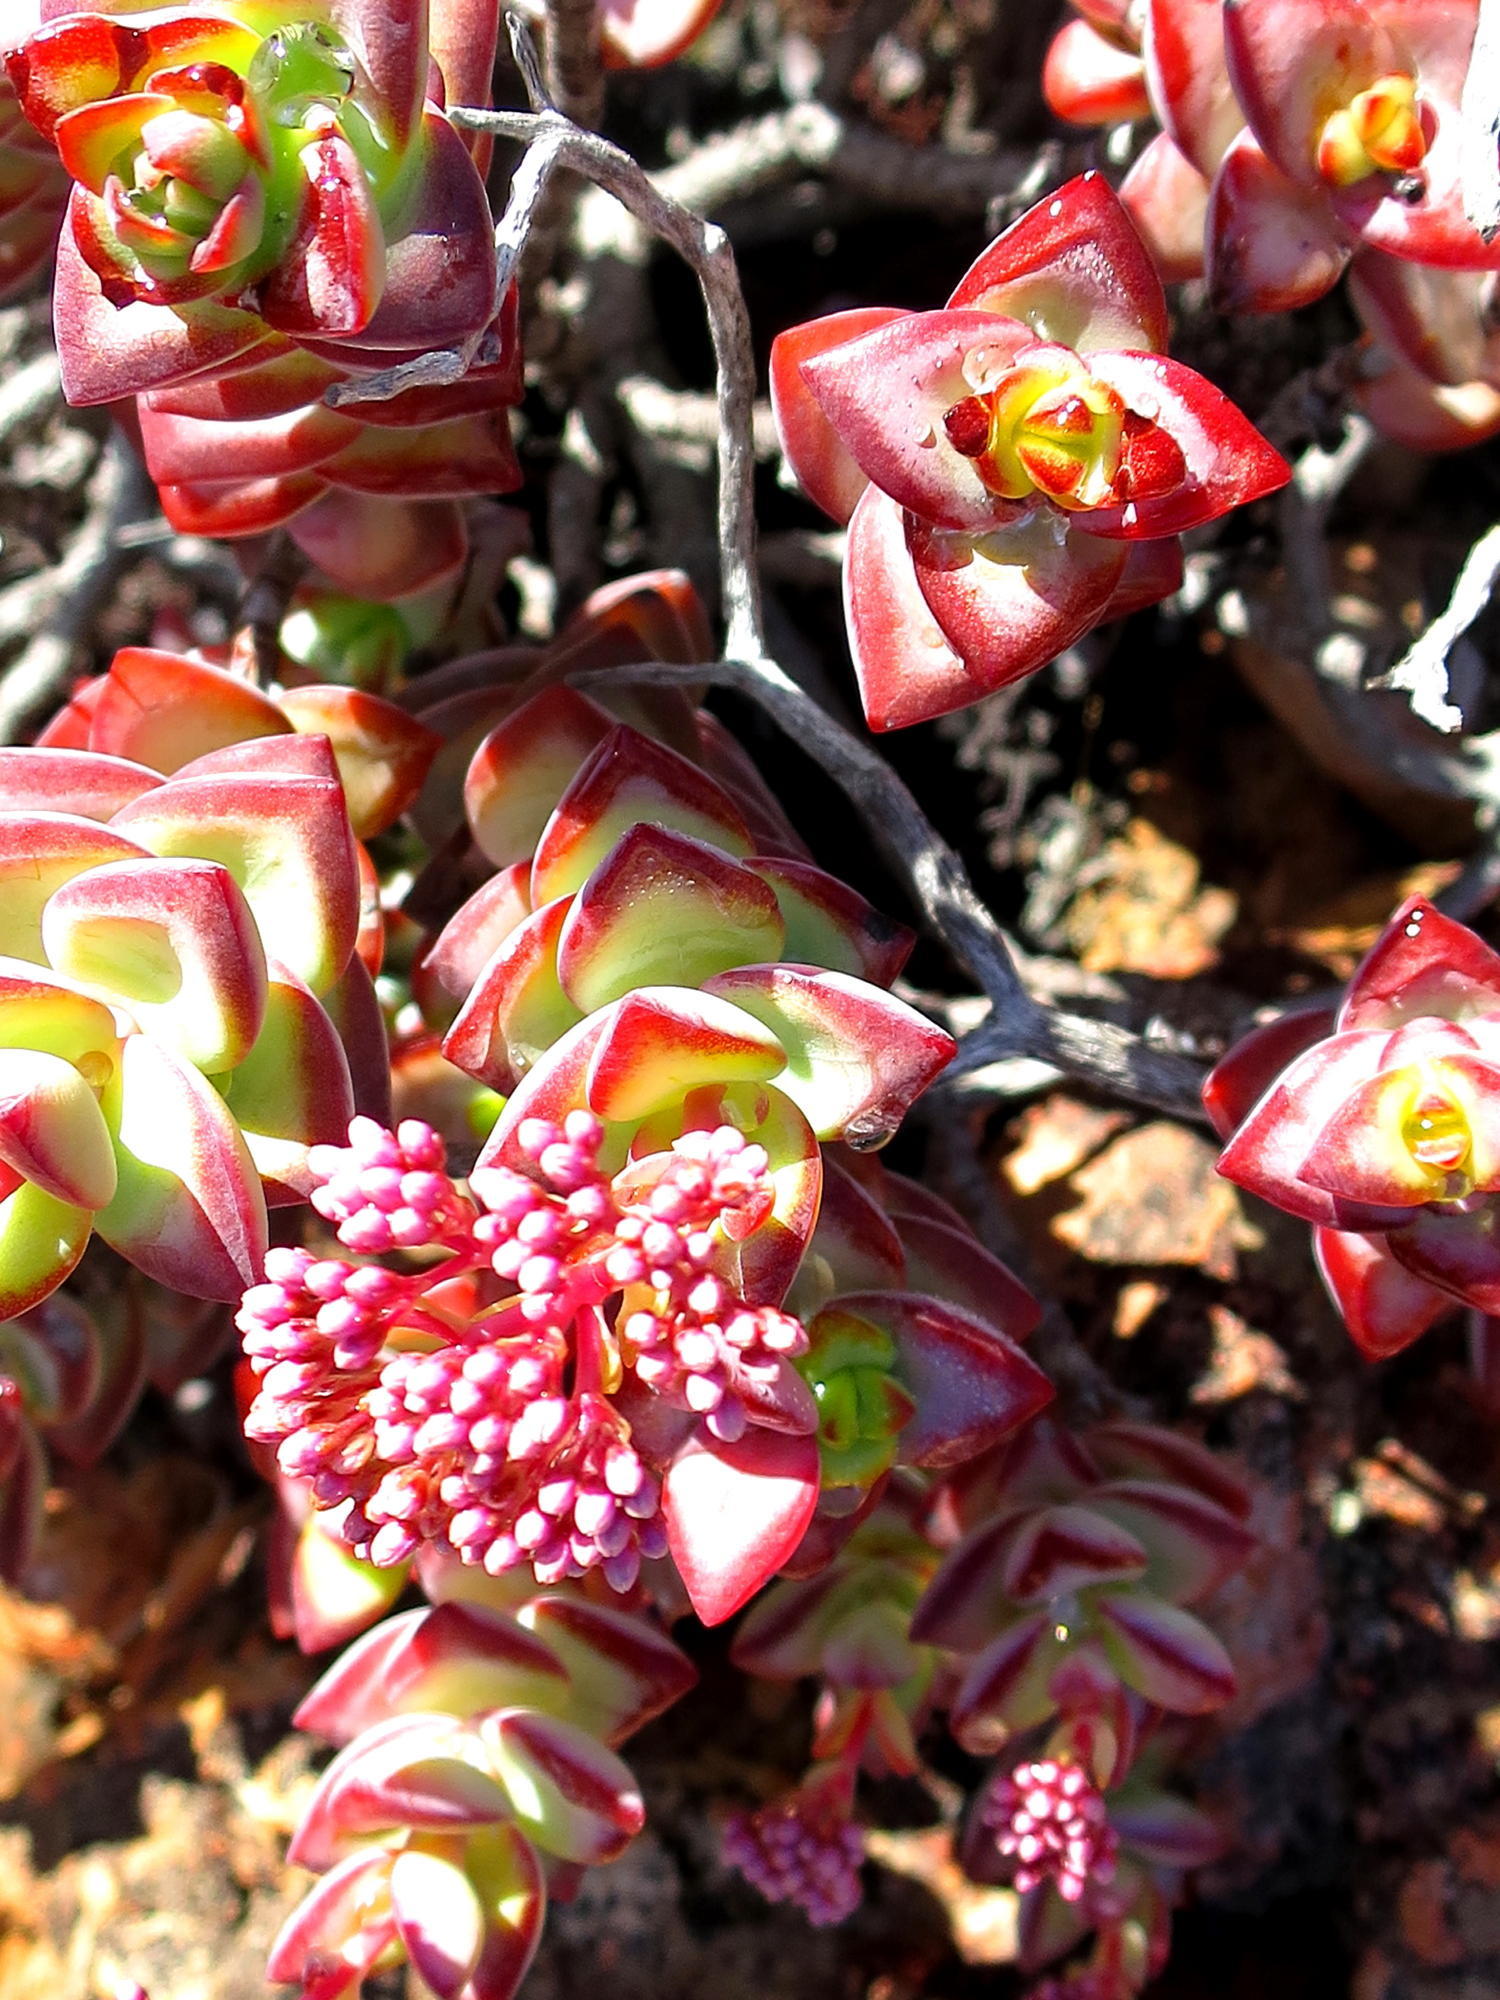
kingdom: Plantae
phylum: Tracheophyta
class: Magnoliopsida
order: Saxifragales
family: Crassulaceae
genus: Crassula
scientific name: Crassula rupestris
